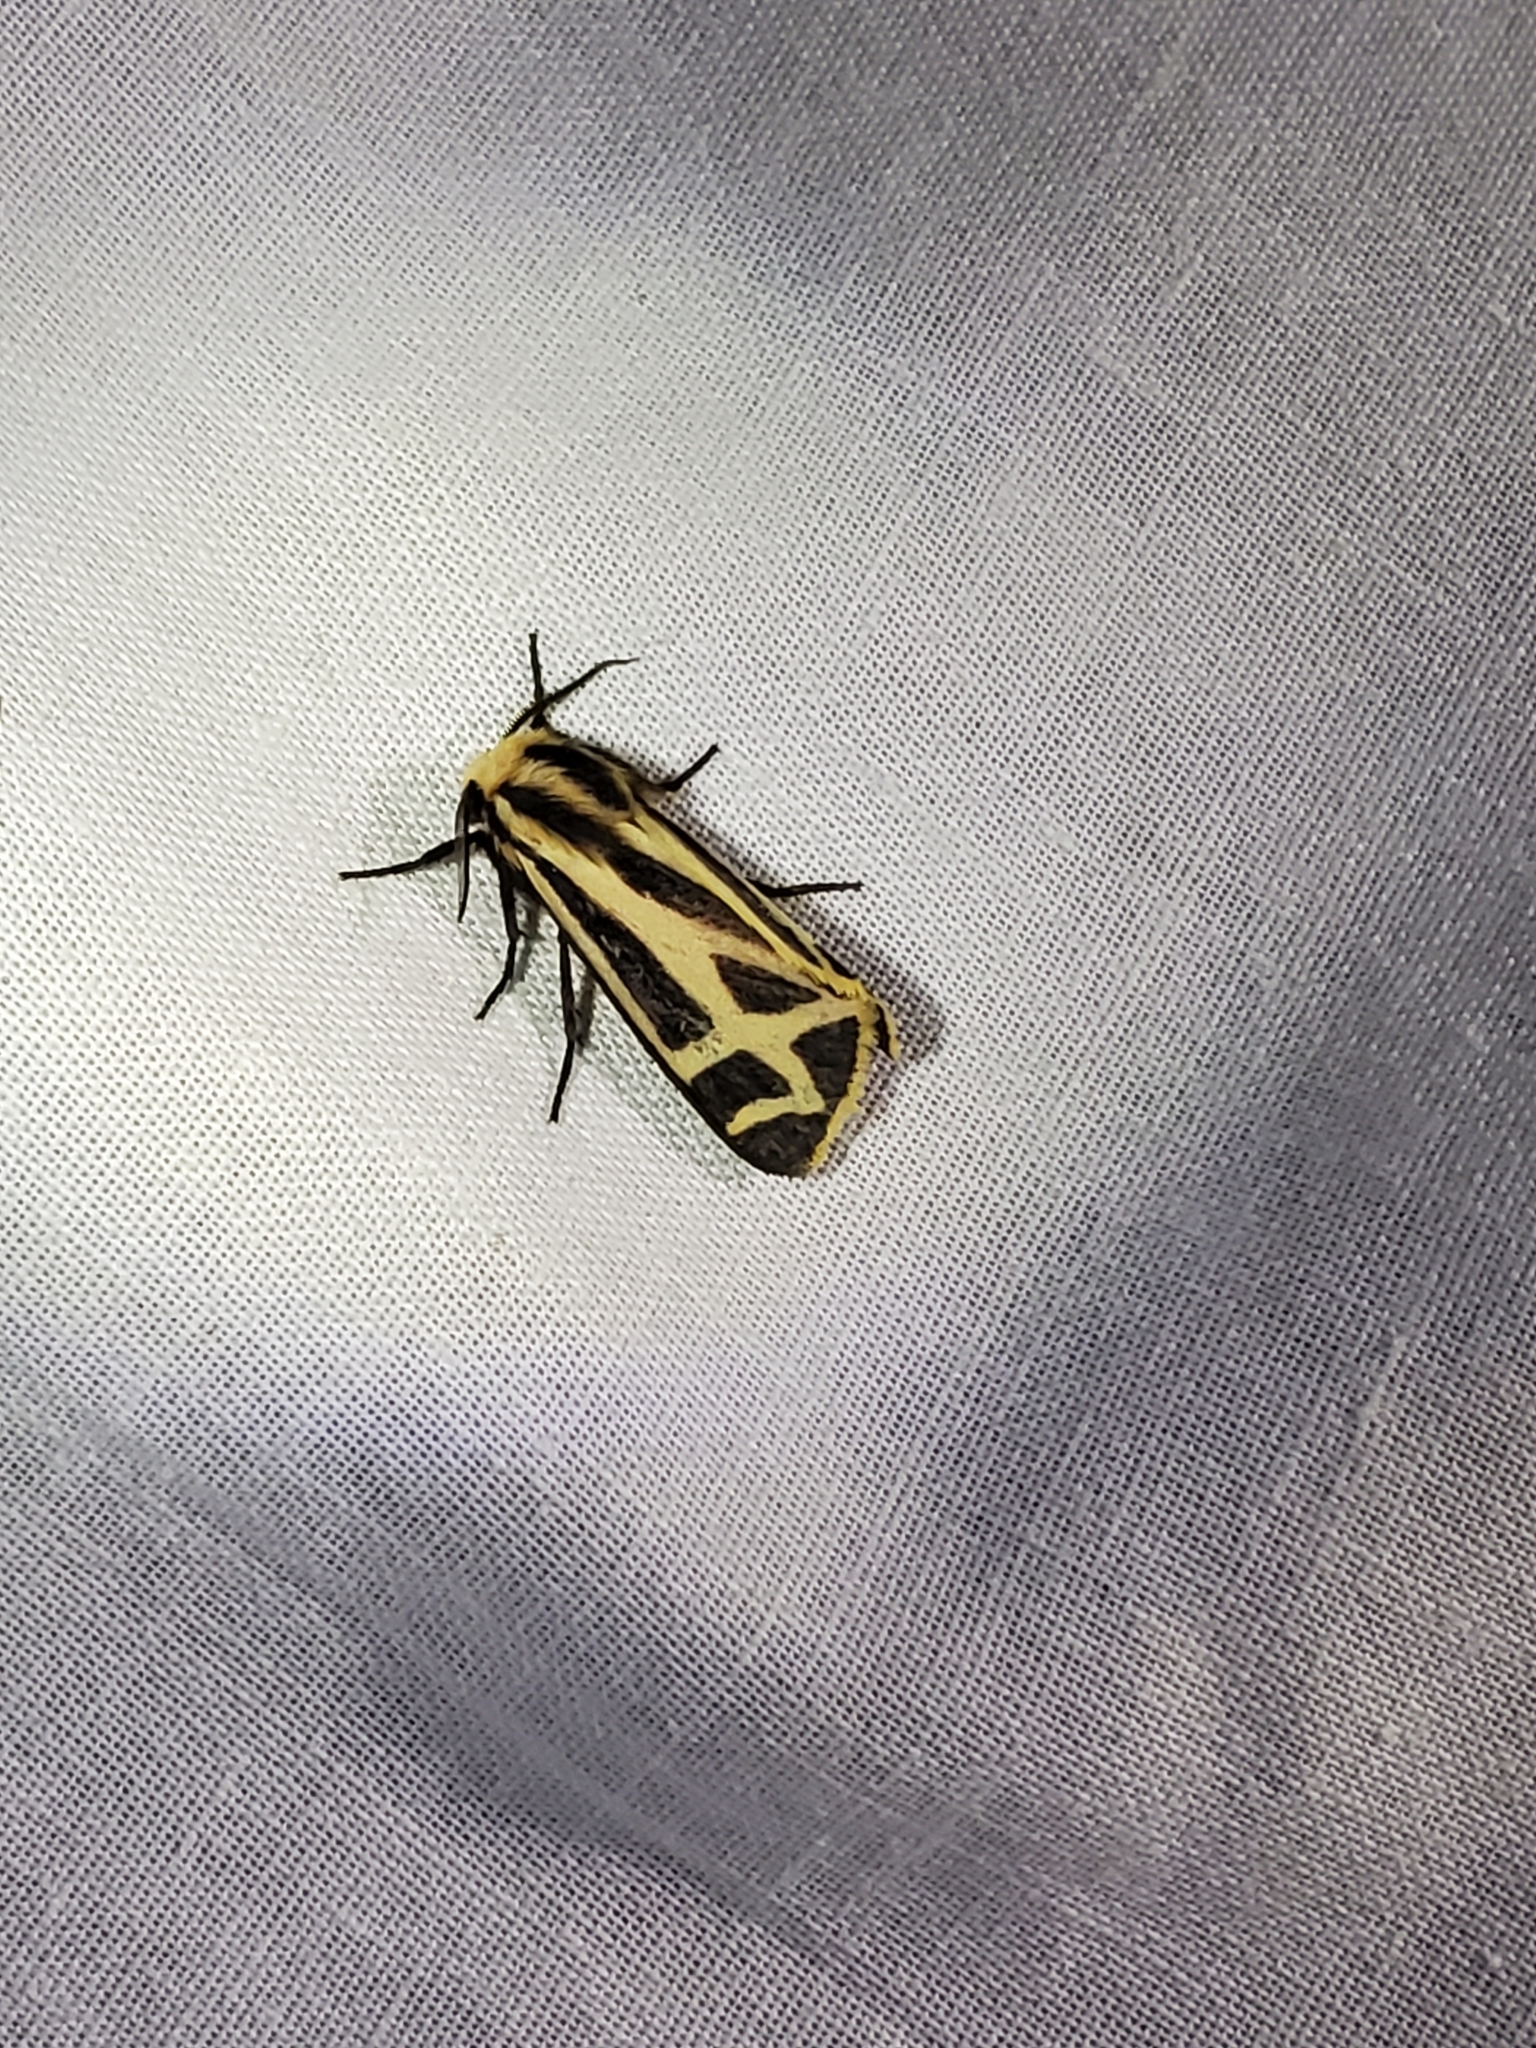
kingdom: Animalia
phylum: Arthropoda
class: Insecta
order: Lepidoptera
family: Erebidae
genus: Apantesis
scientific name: Apantesis carlotta
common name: Carlotta's tiger moth
